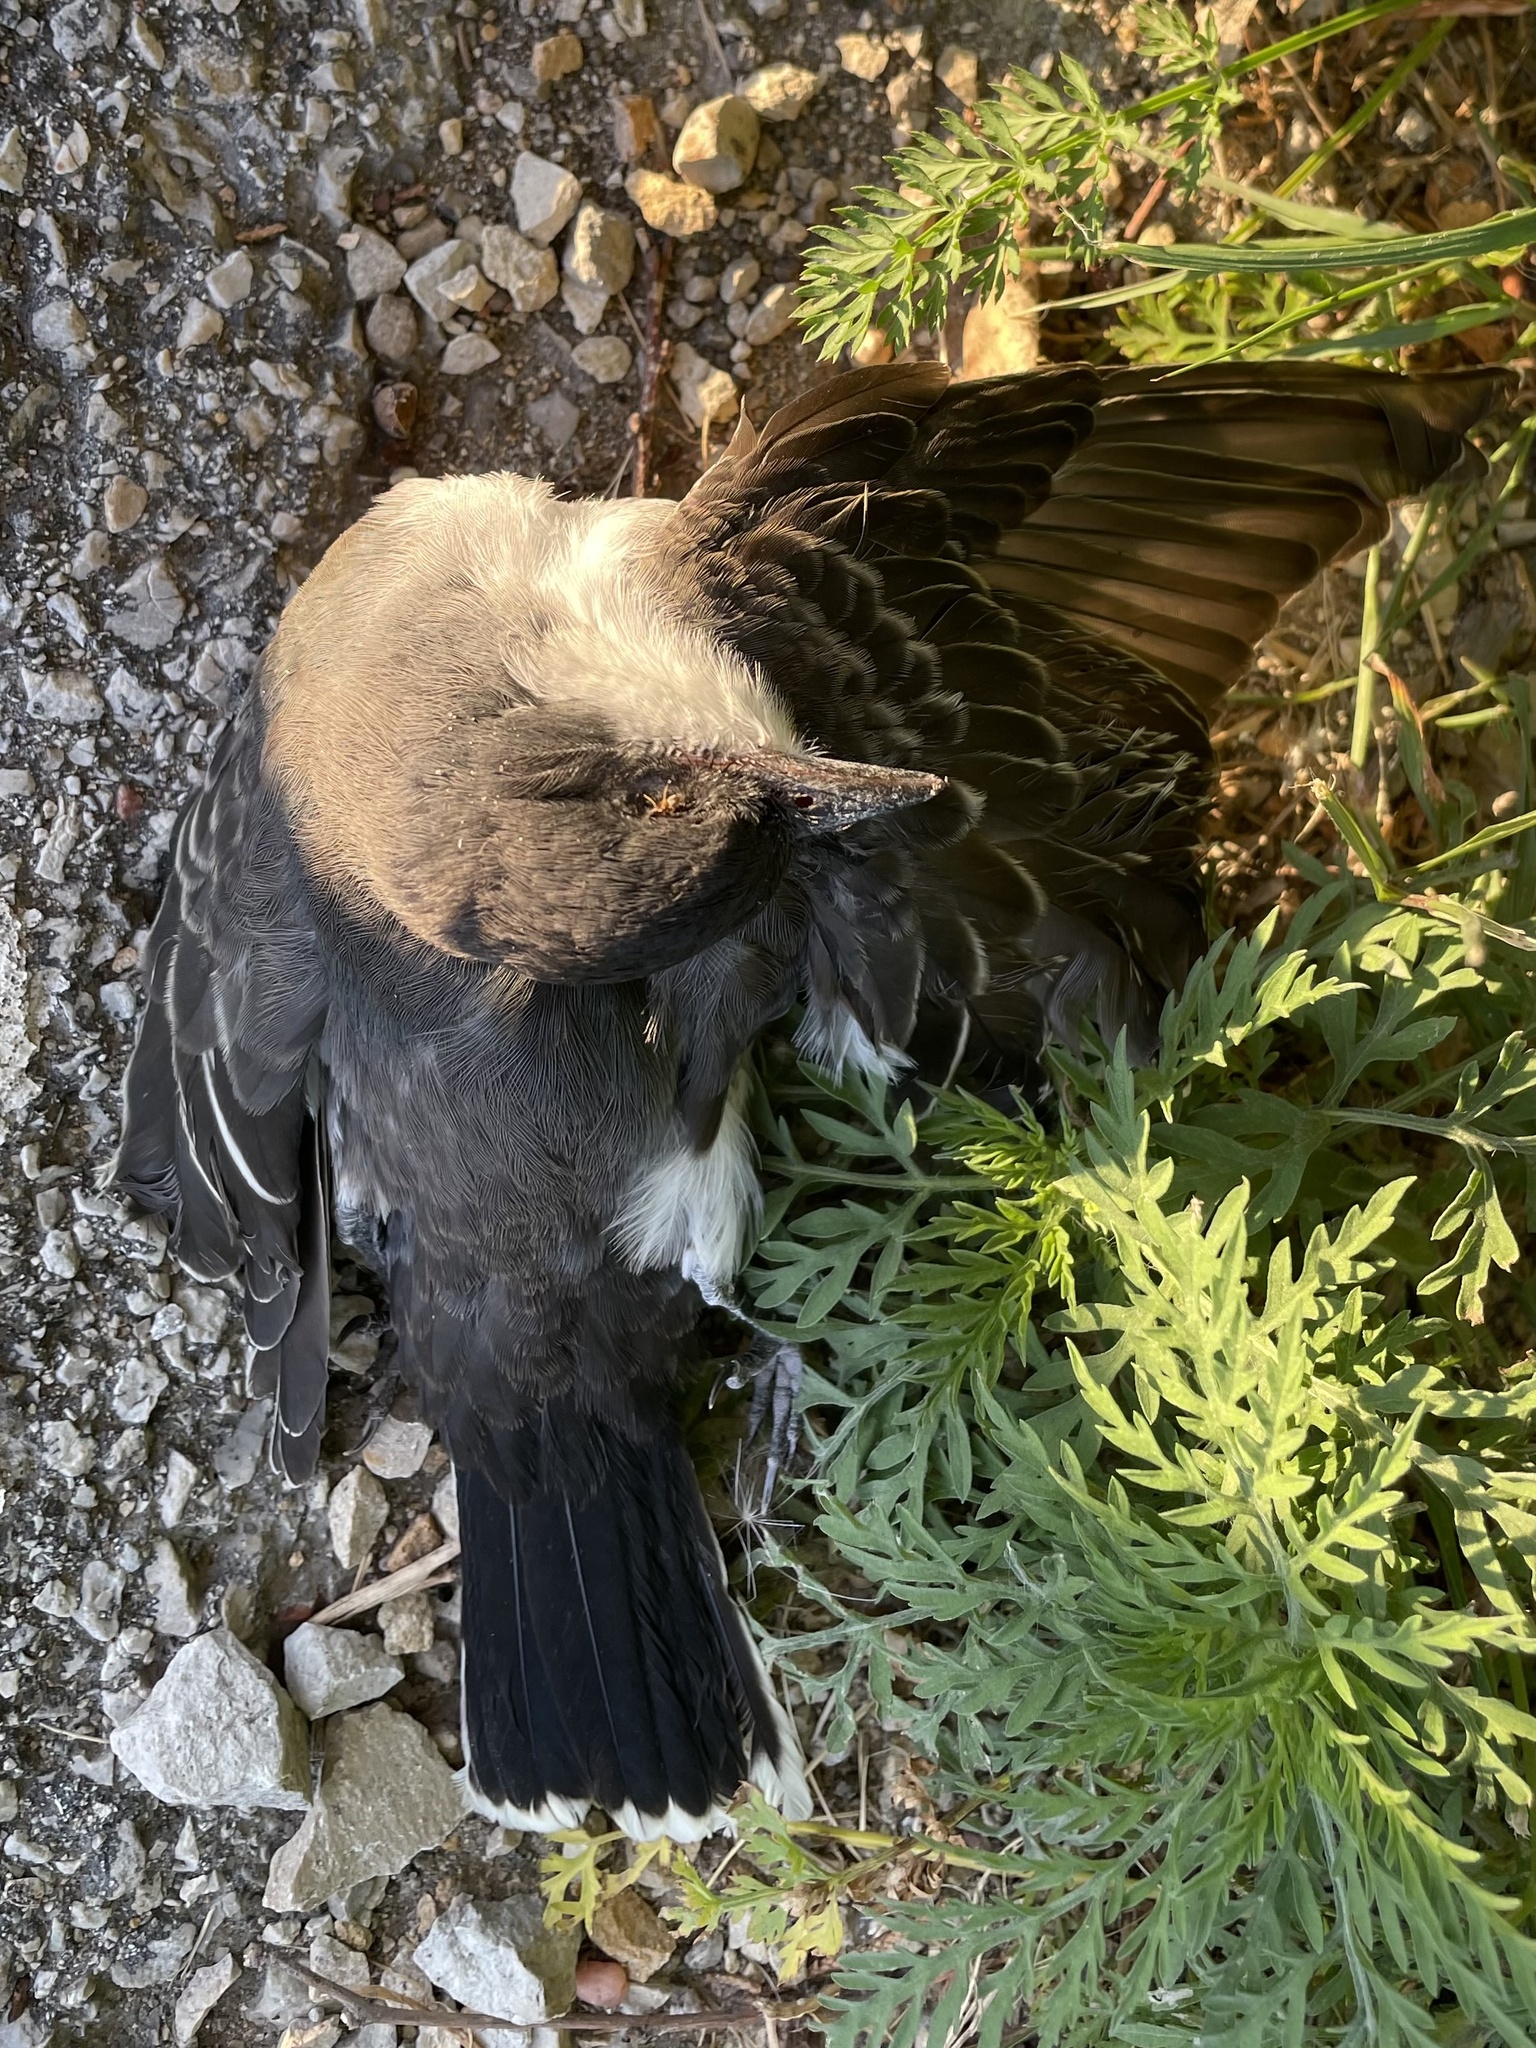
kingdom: Animalia
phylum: Chordata
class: Aves
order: Passeriformes
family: Tyrannidae
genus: Tyrannus
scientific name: Tyrannus tyrannus
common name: Eastern kingbird
